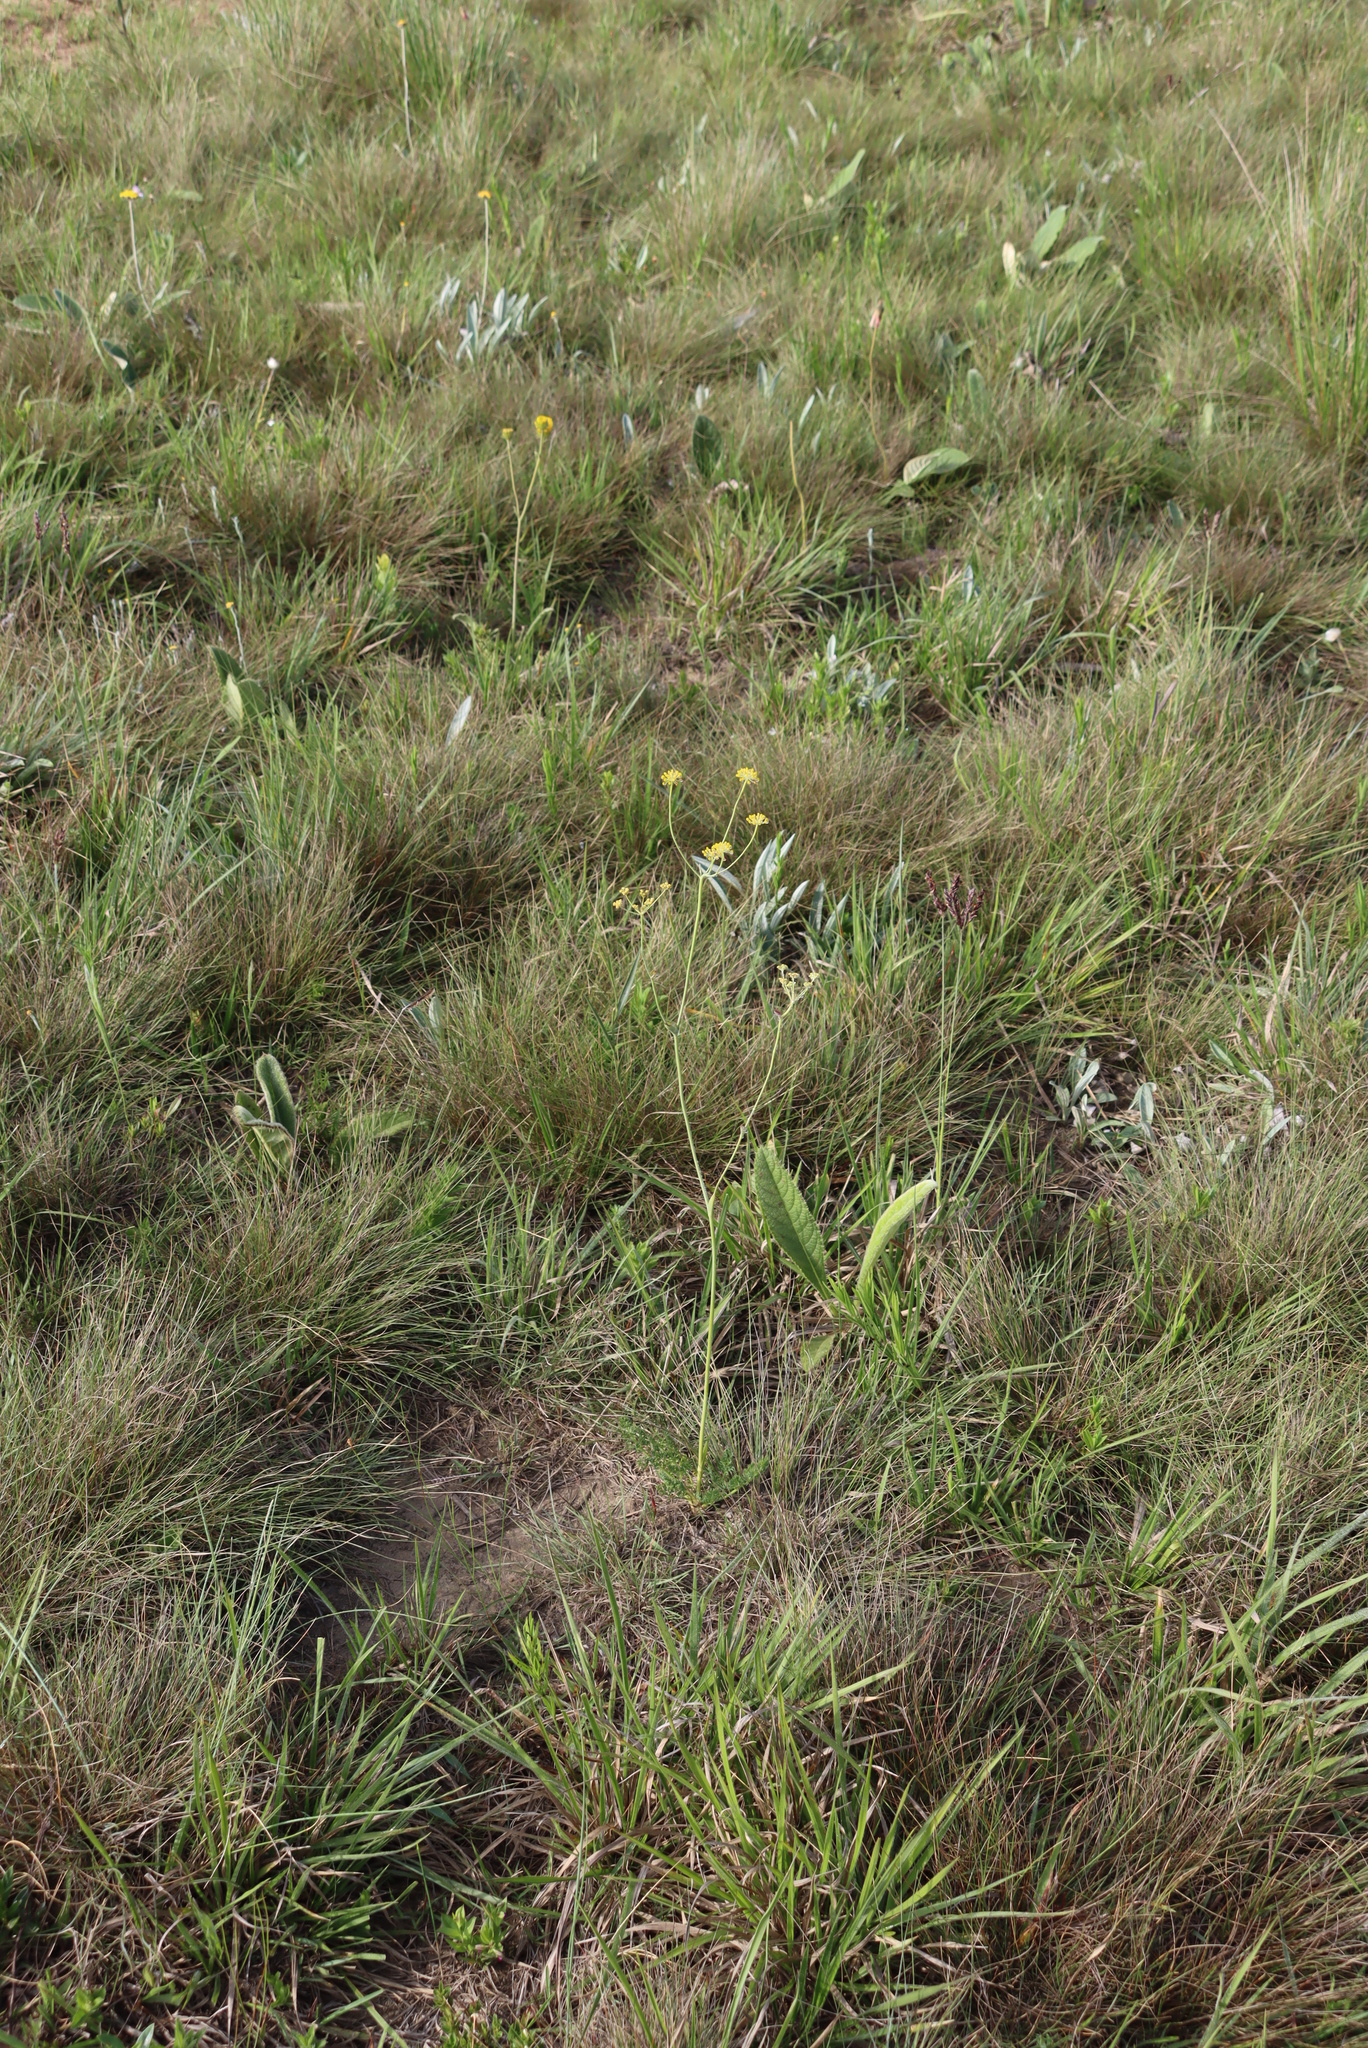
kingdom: Plantae
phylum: Tracheophyta
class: Magnoliopsida
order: Apiales
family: Apiaceae
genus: Afrosciadium
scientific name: Afrosciadium magalismontanum
